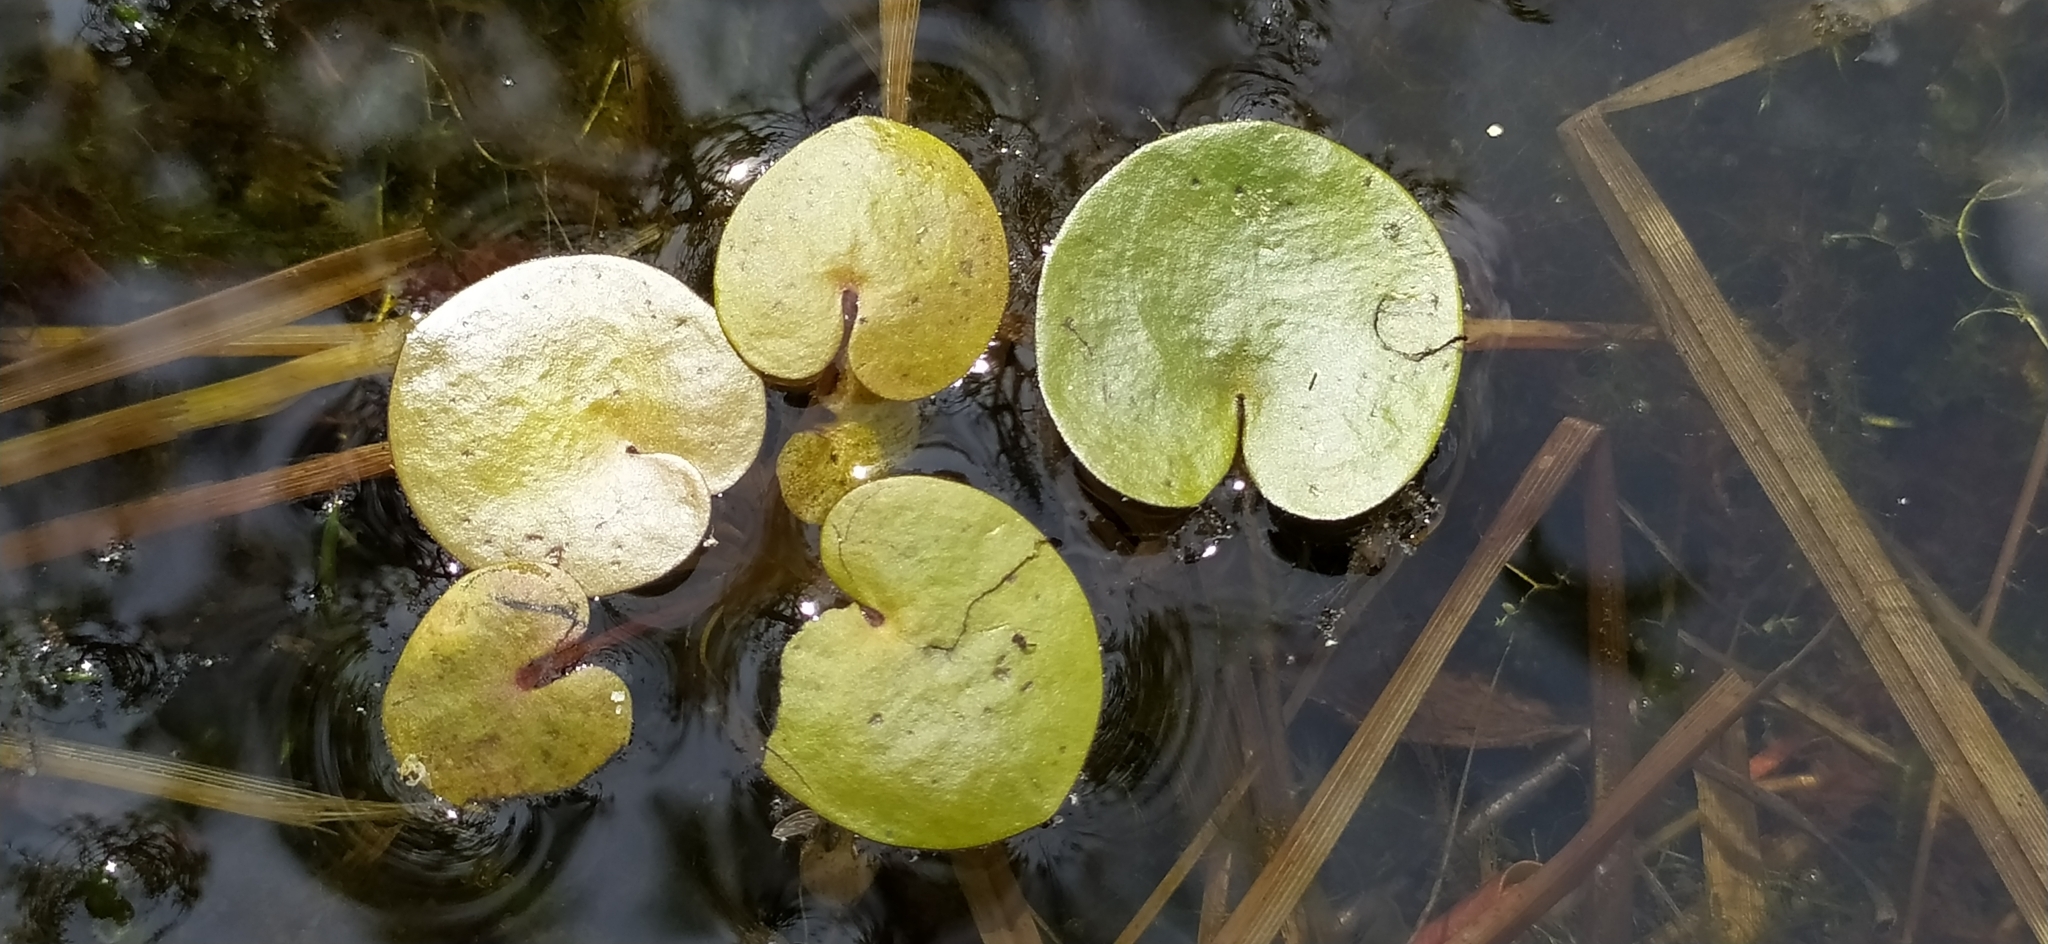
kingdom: Plantae
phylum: Tracheophyta
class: Liliopsida
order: Alismatales
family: Hydrocharitaceae
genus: Hydrocharis
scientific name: Hydrocharis morsus-ranae
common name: Frogbit
